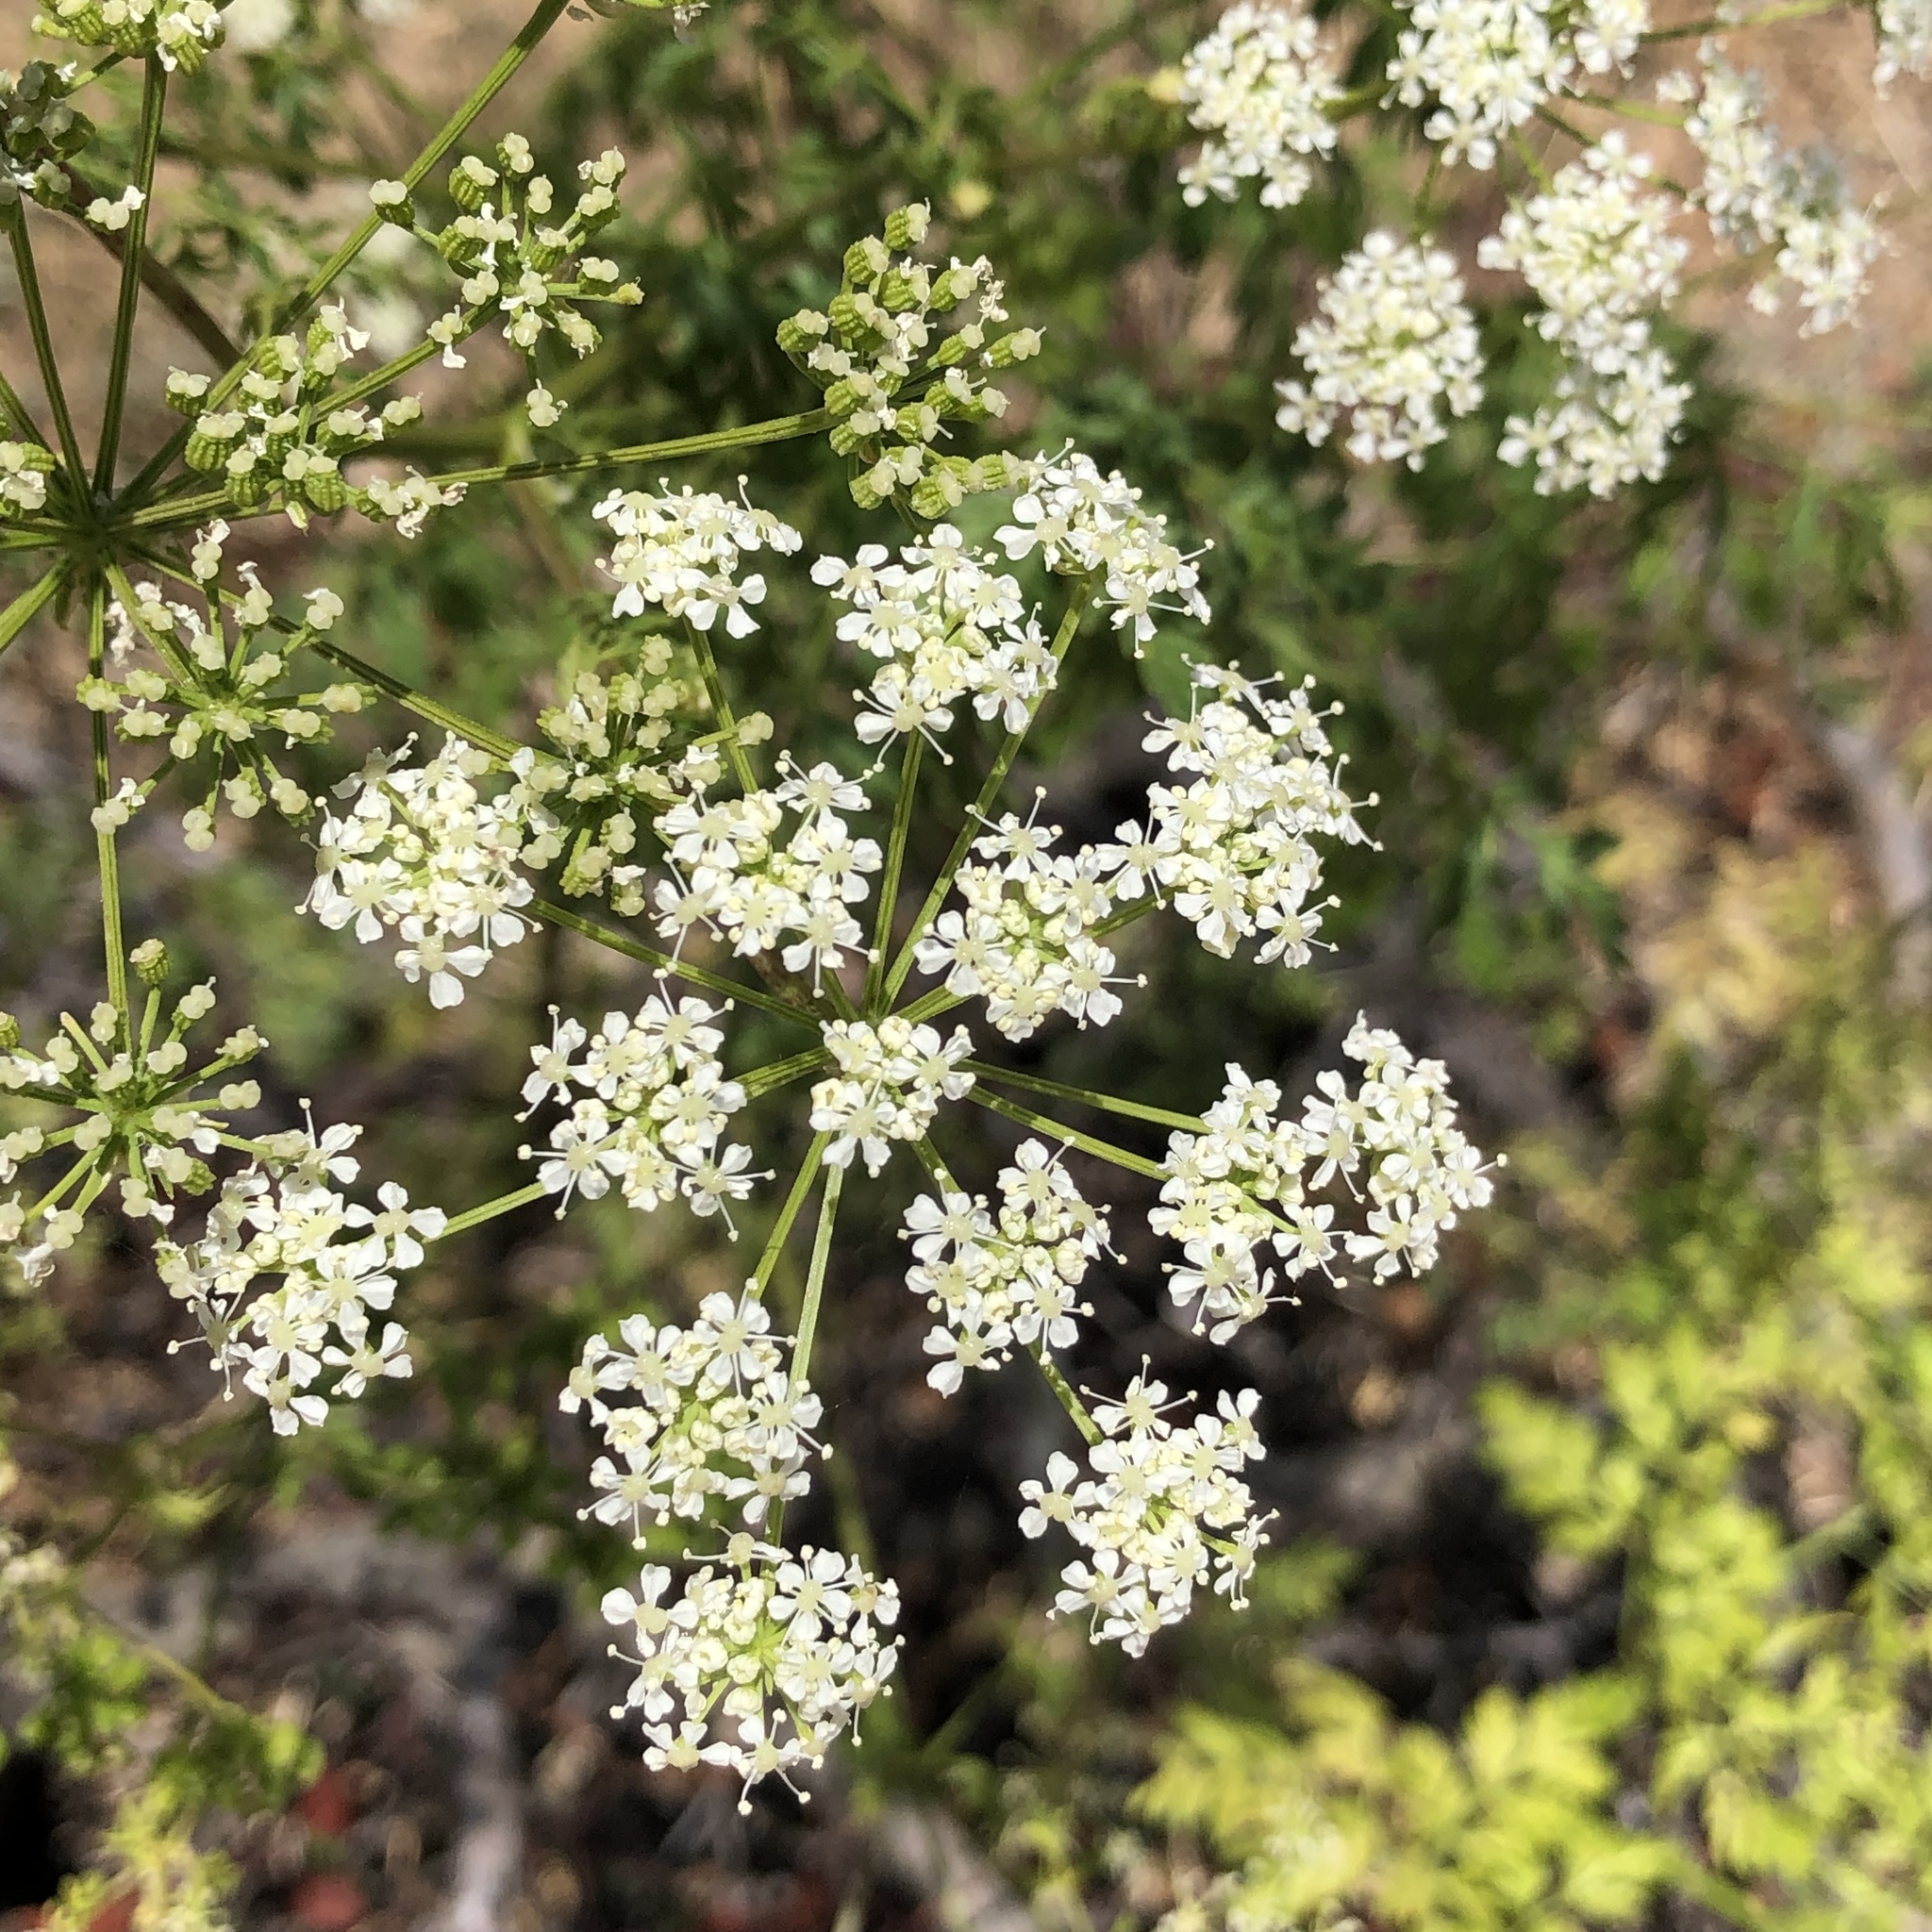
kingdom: Plantae
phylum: Tracheophyta
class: Magnoliopsida
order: Apiales
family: Apiaceae
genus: Conium
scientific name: Conium maculatum
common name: Hemlock
